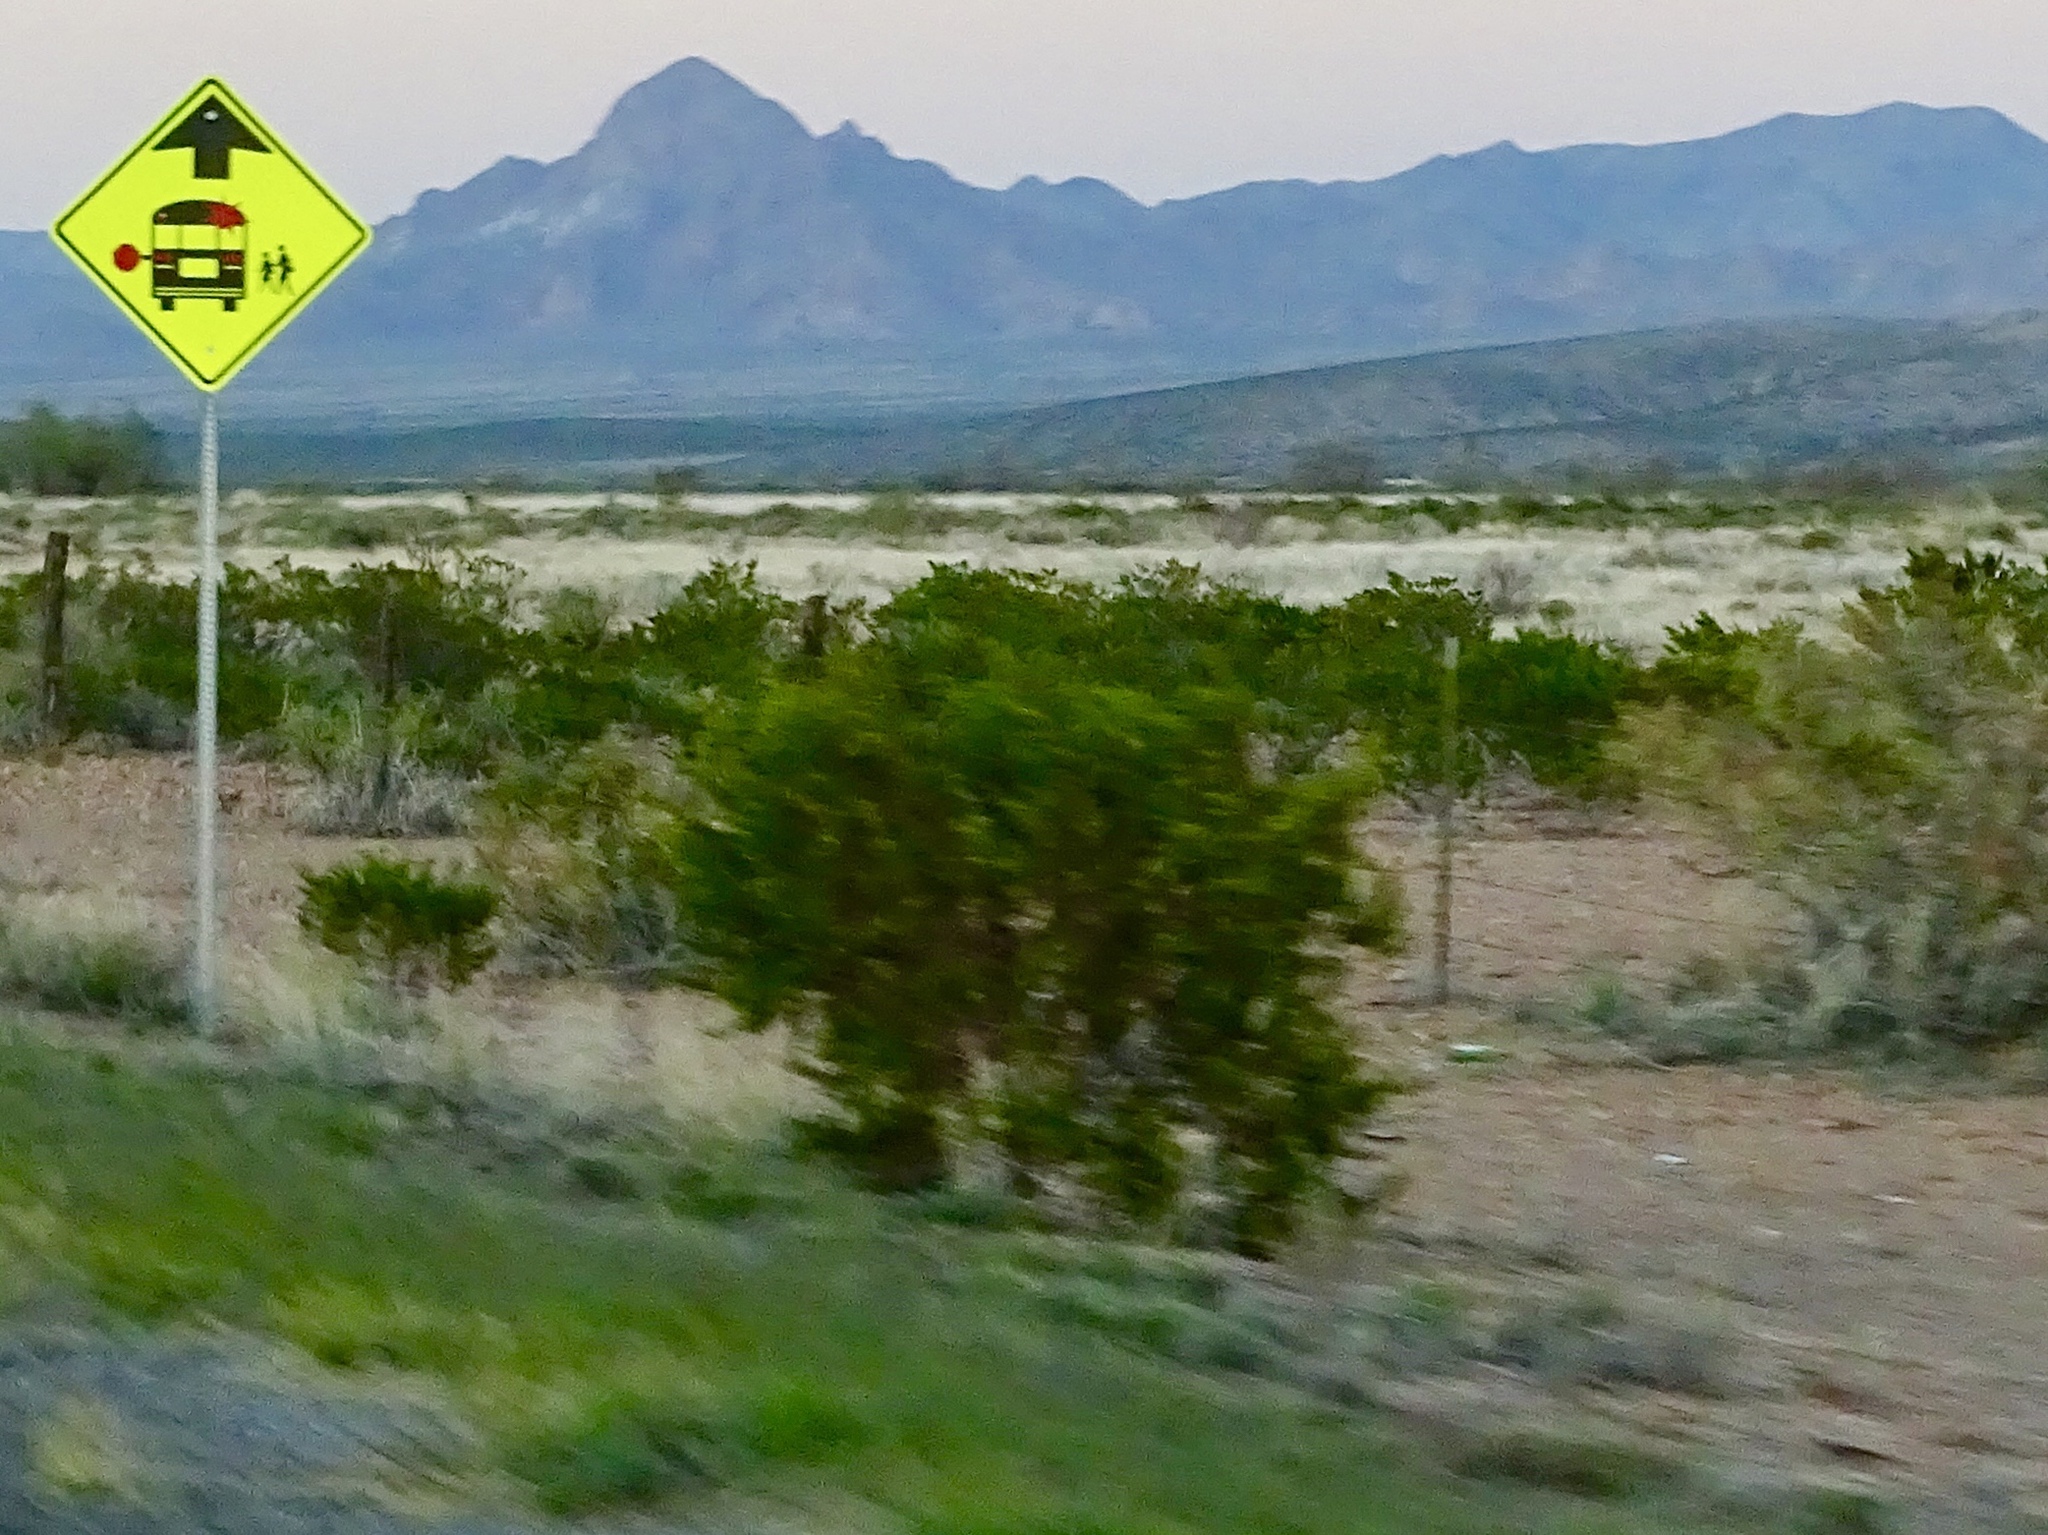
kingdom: Plantae
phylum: Tracheophyta
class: Magnoliopsida
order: Zygophyllales
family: Zygophyllaceae
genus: Larrea
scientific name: Larrea tridentata
